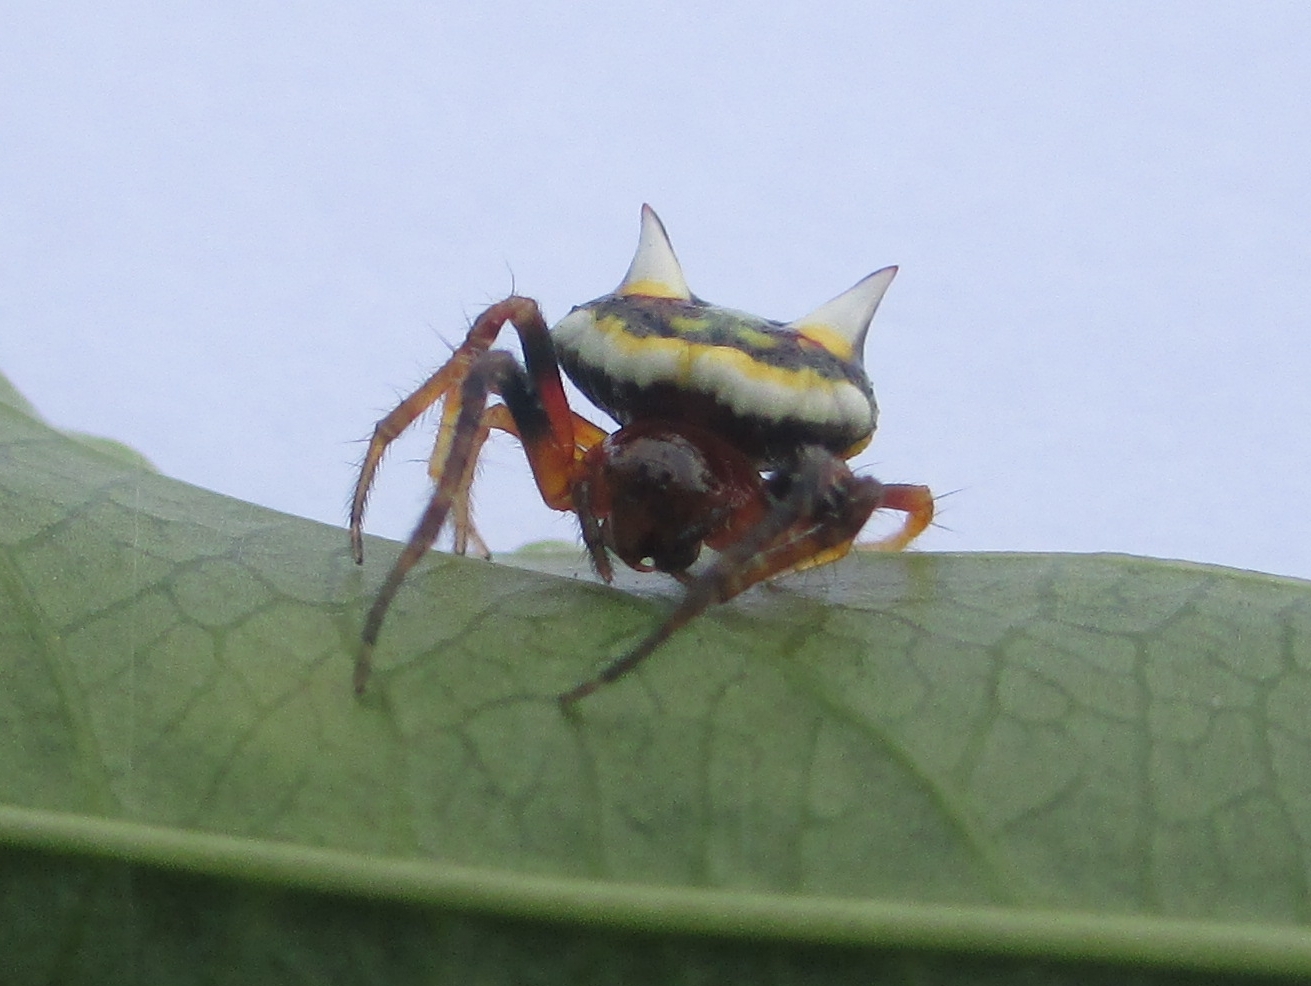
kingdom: Animalia
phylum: Arthropoda
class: Arachnida
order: Araneae
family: Araneidae
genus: Poecilopachys
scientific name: Poecilopachys australasia
